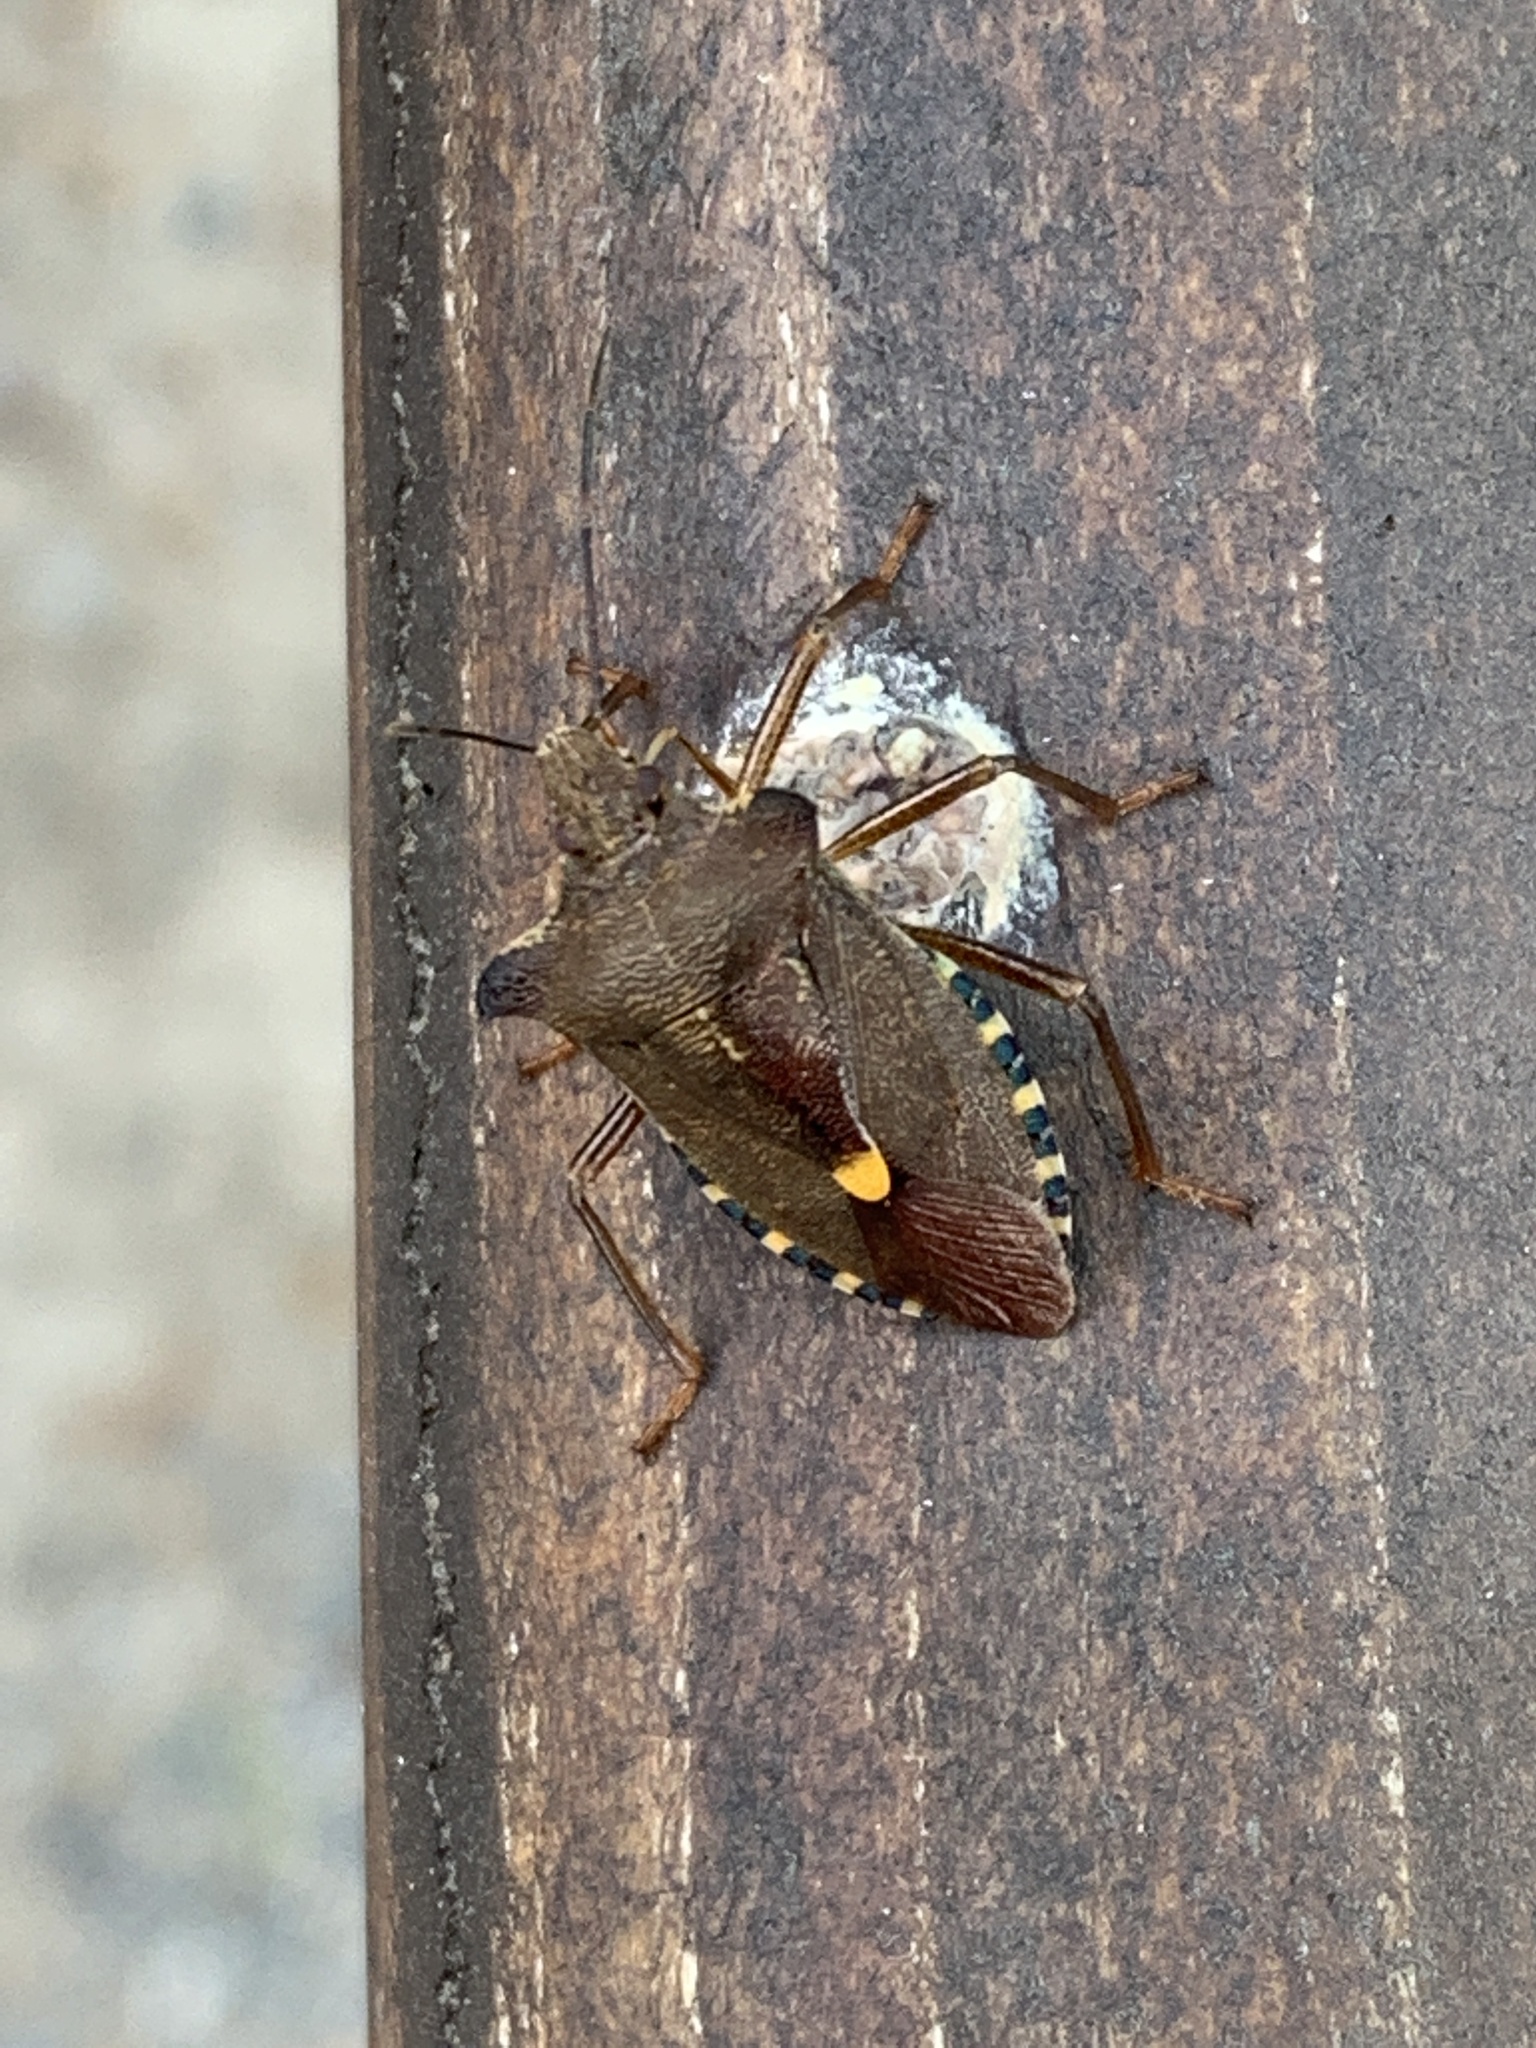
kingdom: Animalia
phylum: Arthropoda
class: Insecta
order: Hemiptera
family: Pentatomidae
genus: Pentatoma
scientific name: Pentatoma rufipes
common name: Forest bug
